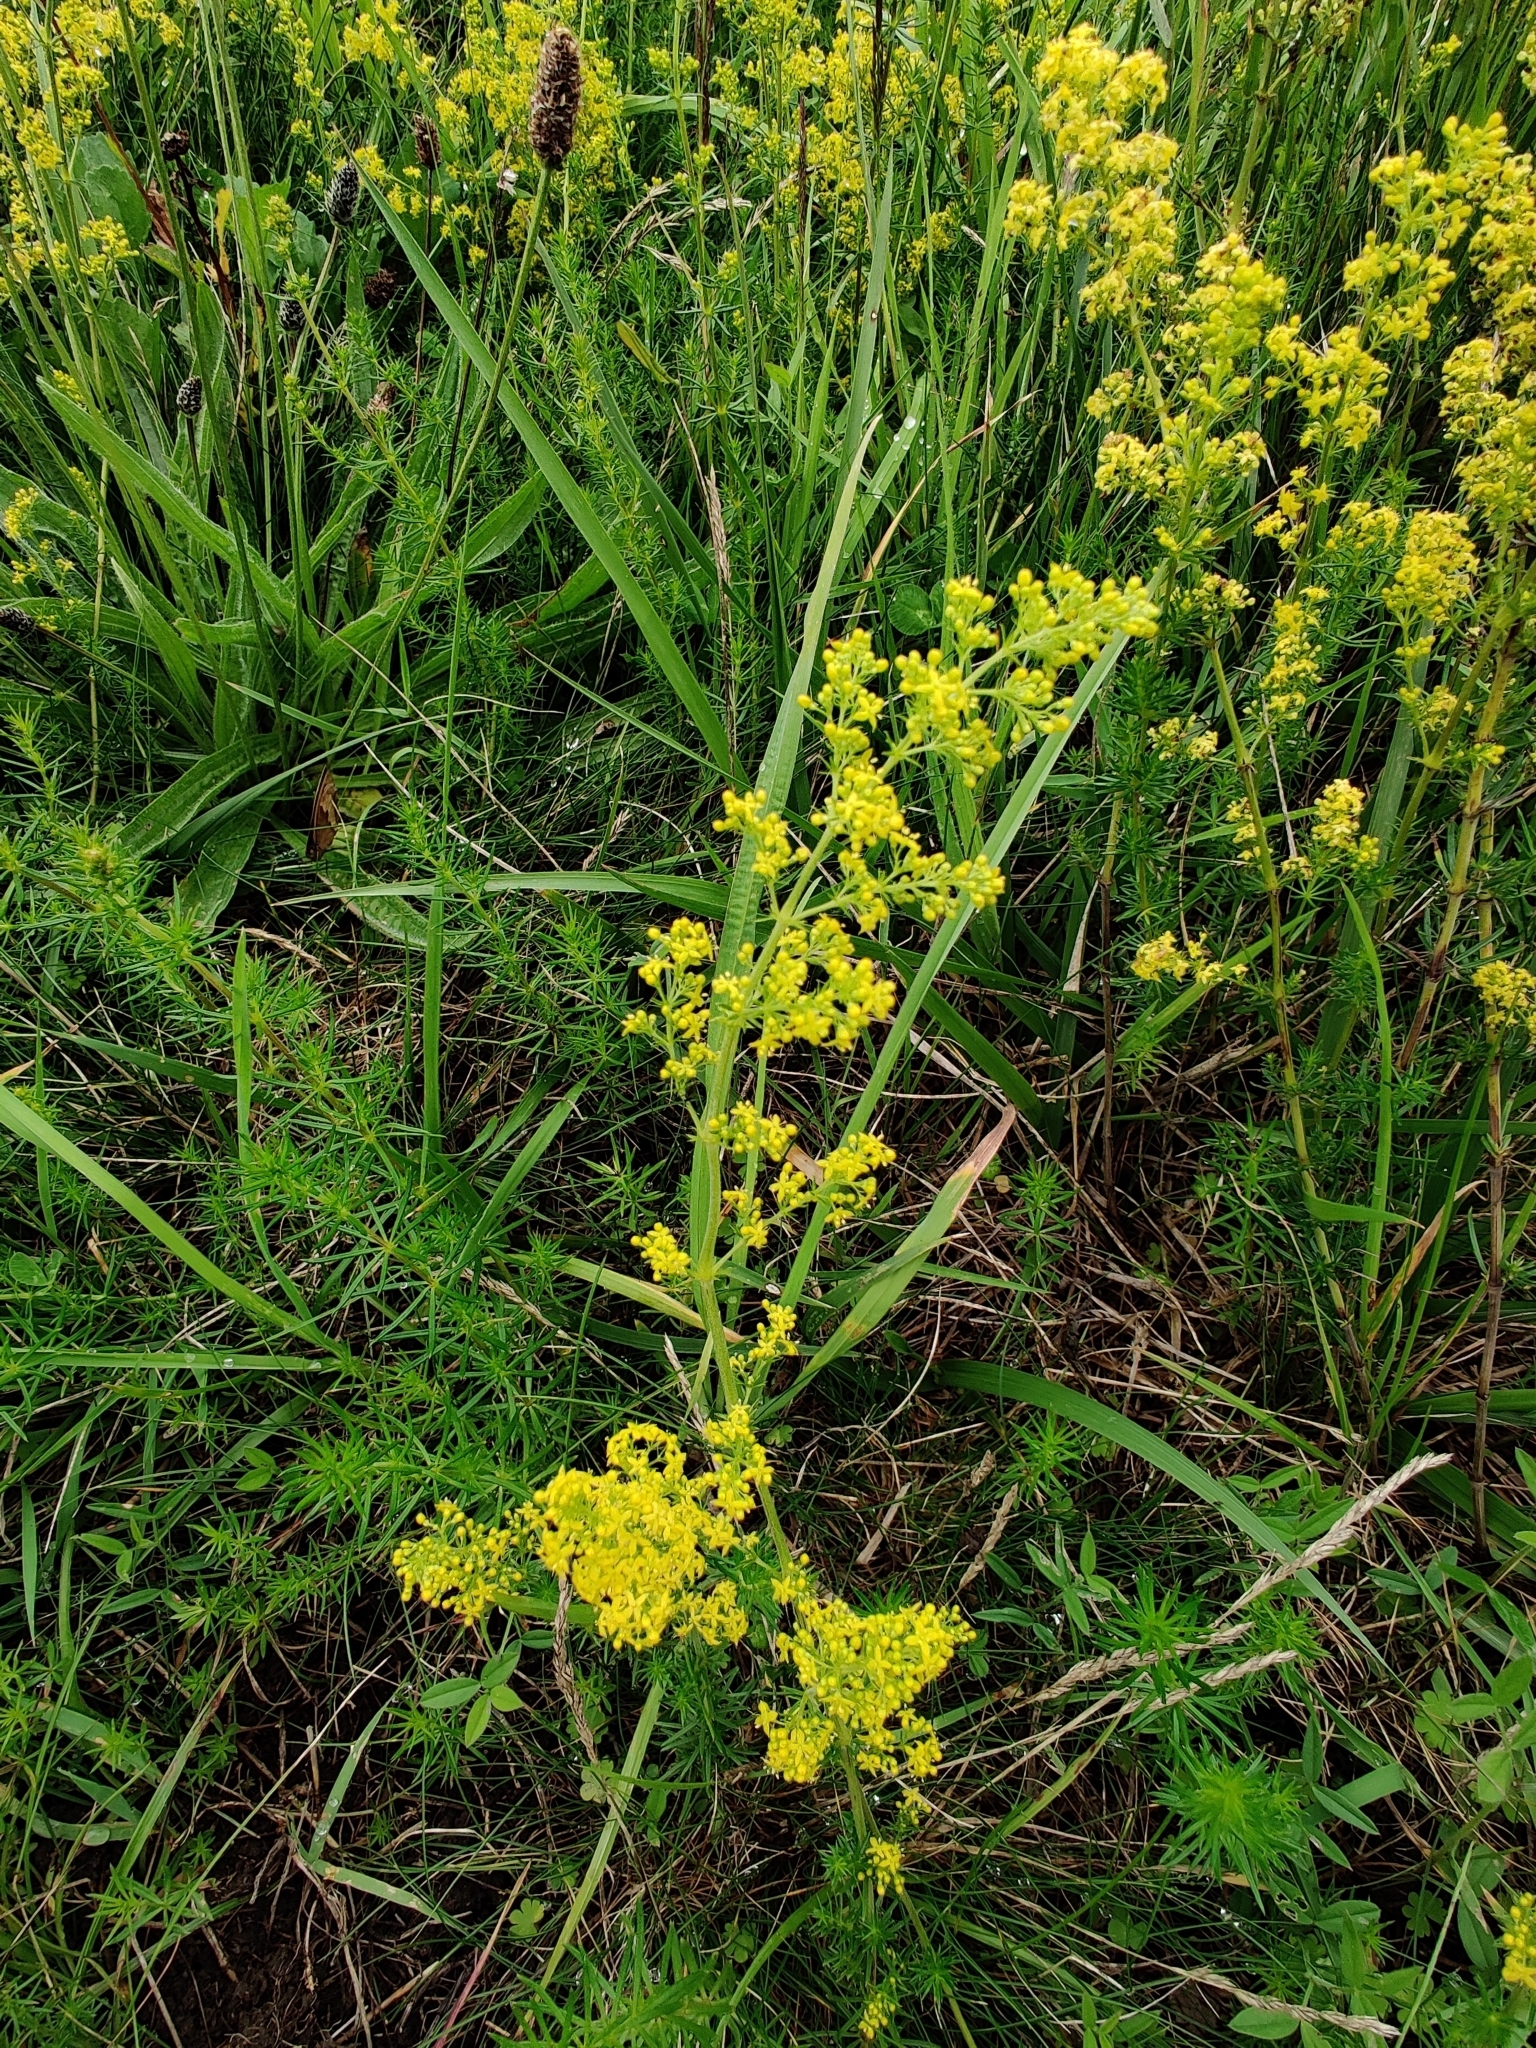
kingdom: Plantae
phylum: Tracheophyta
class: Magnoliopsida
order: Gentianales
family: Rubiaceae
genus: Galium
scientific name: Galium verum
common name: Lady's bedstraw
